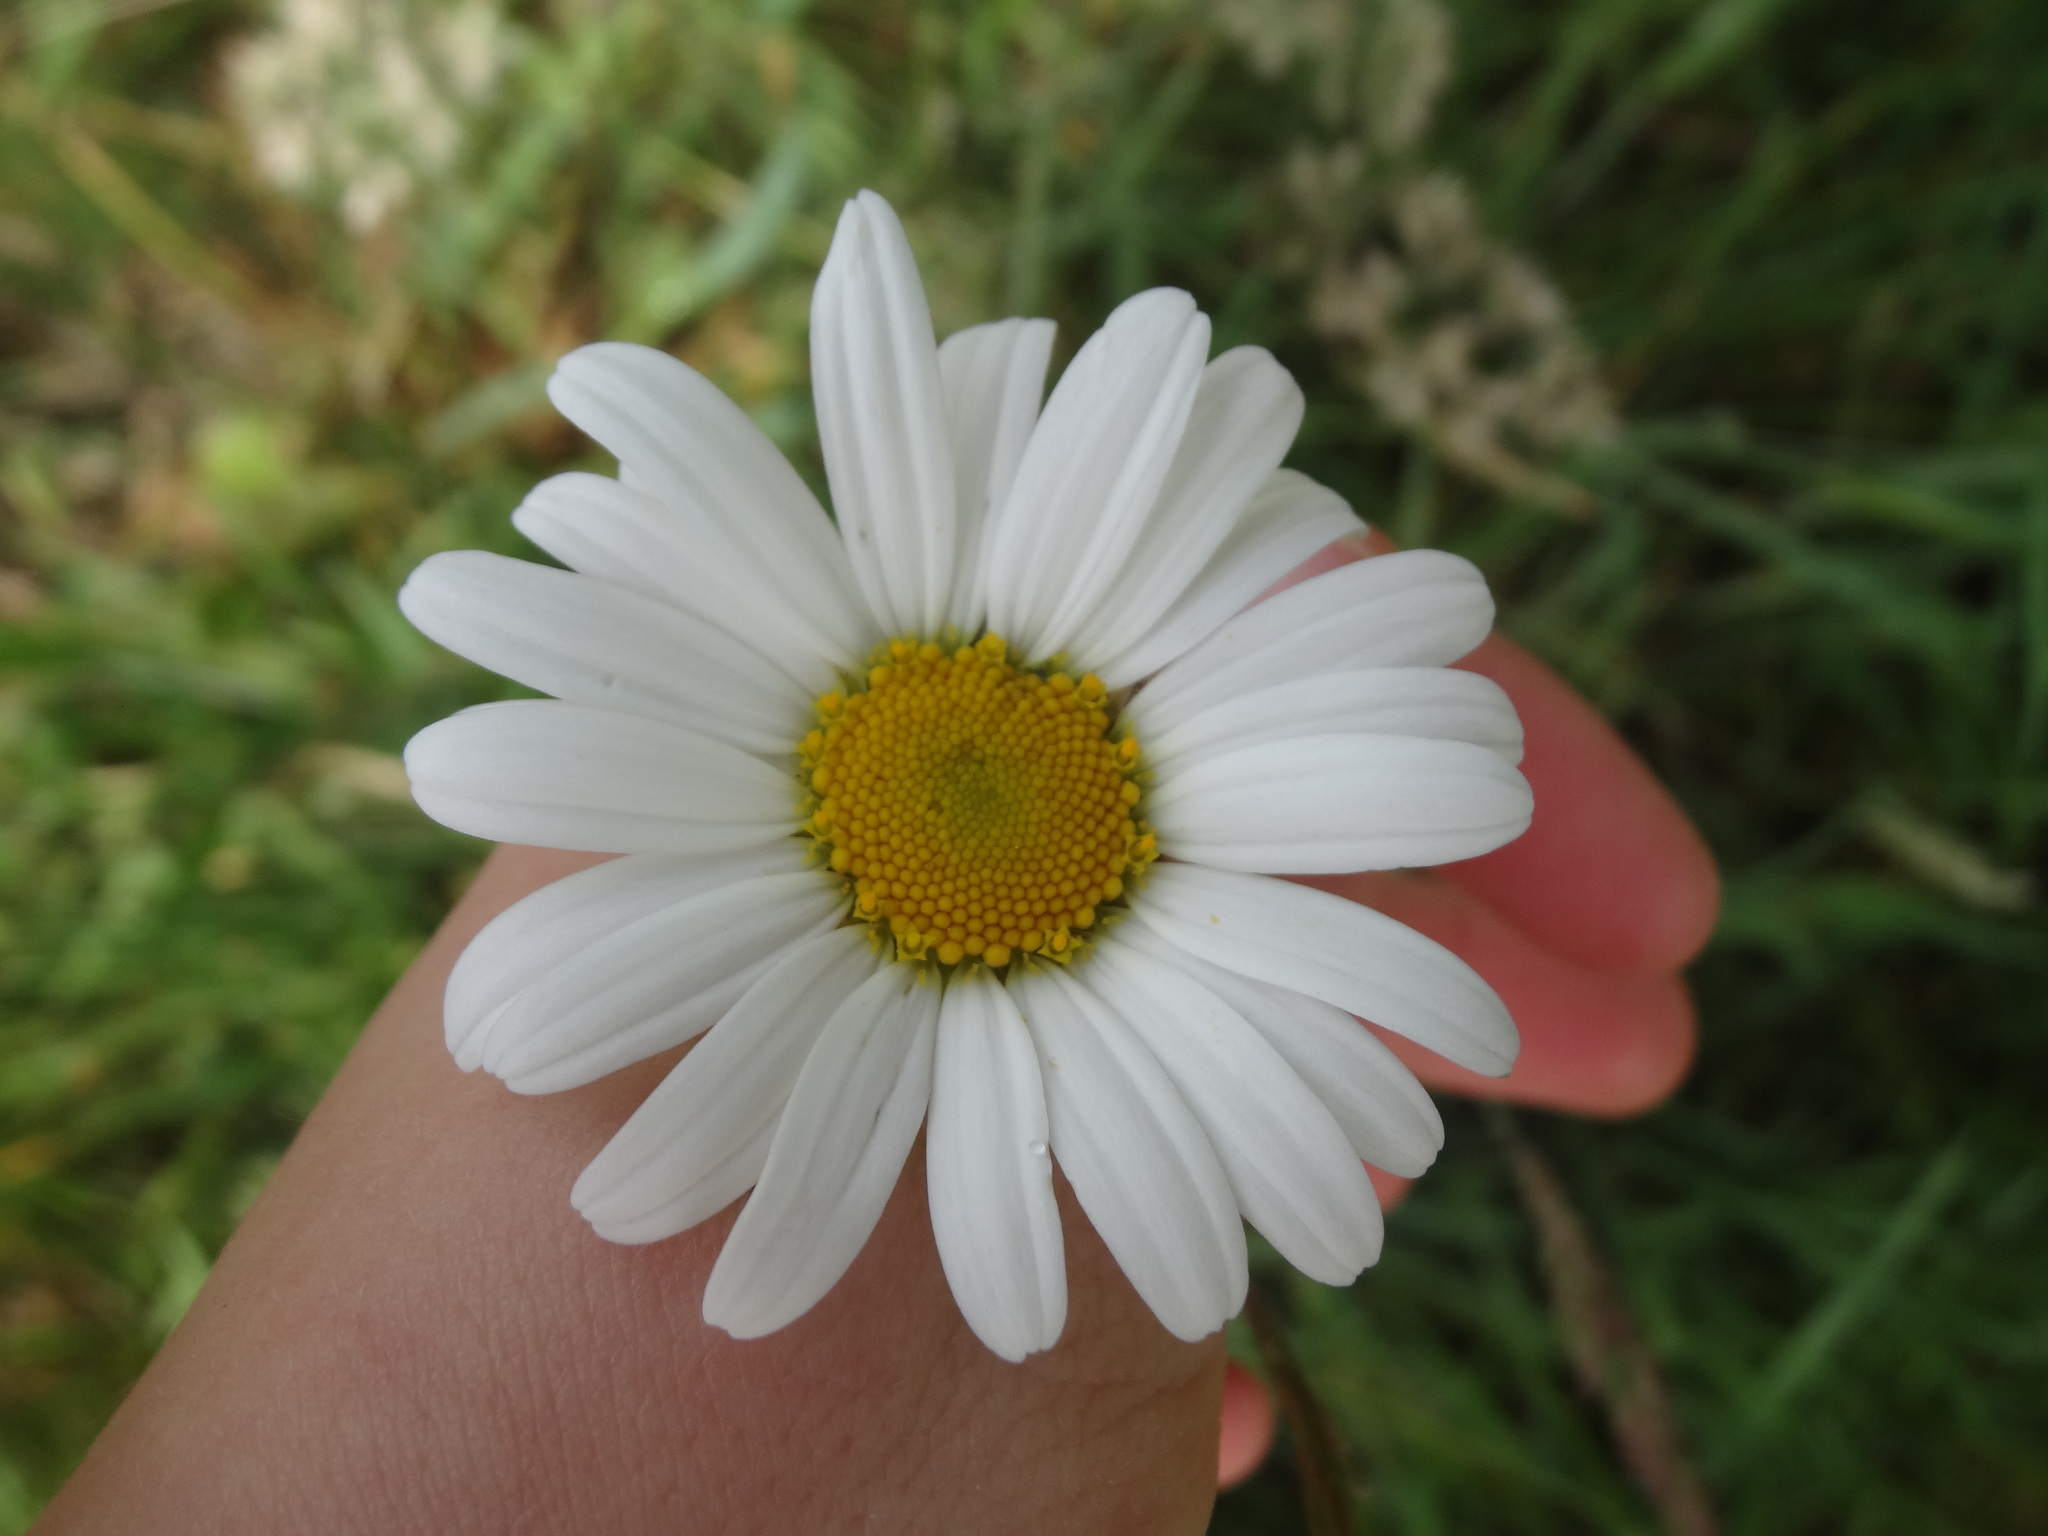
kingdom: Plantae
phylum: Tracheophyta
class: Magnoliopsida
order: Asterales
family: Asteraceae
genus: Leucanthemum
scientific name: Leucanthemum vulgare
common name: Oxeye daisy
